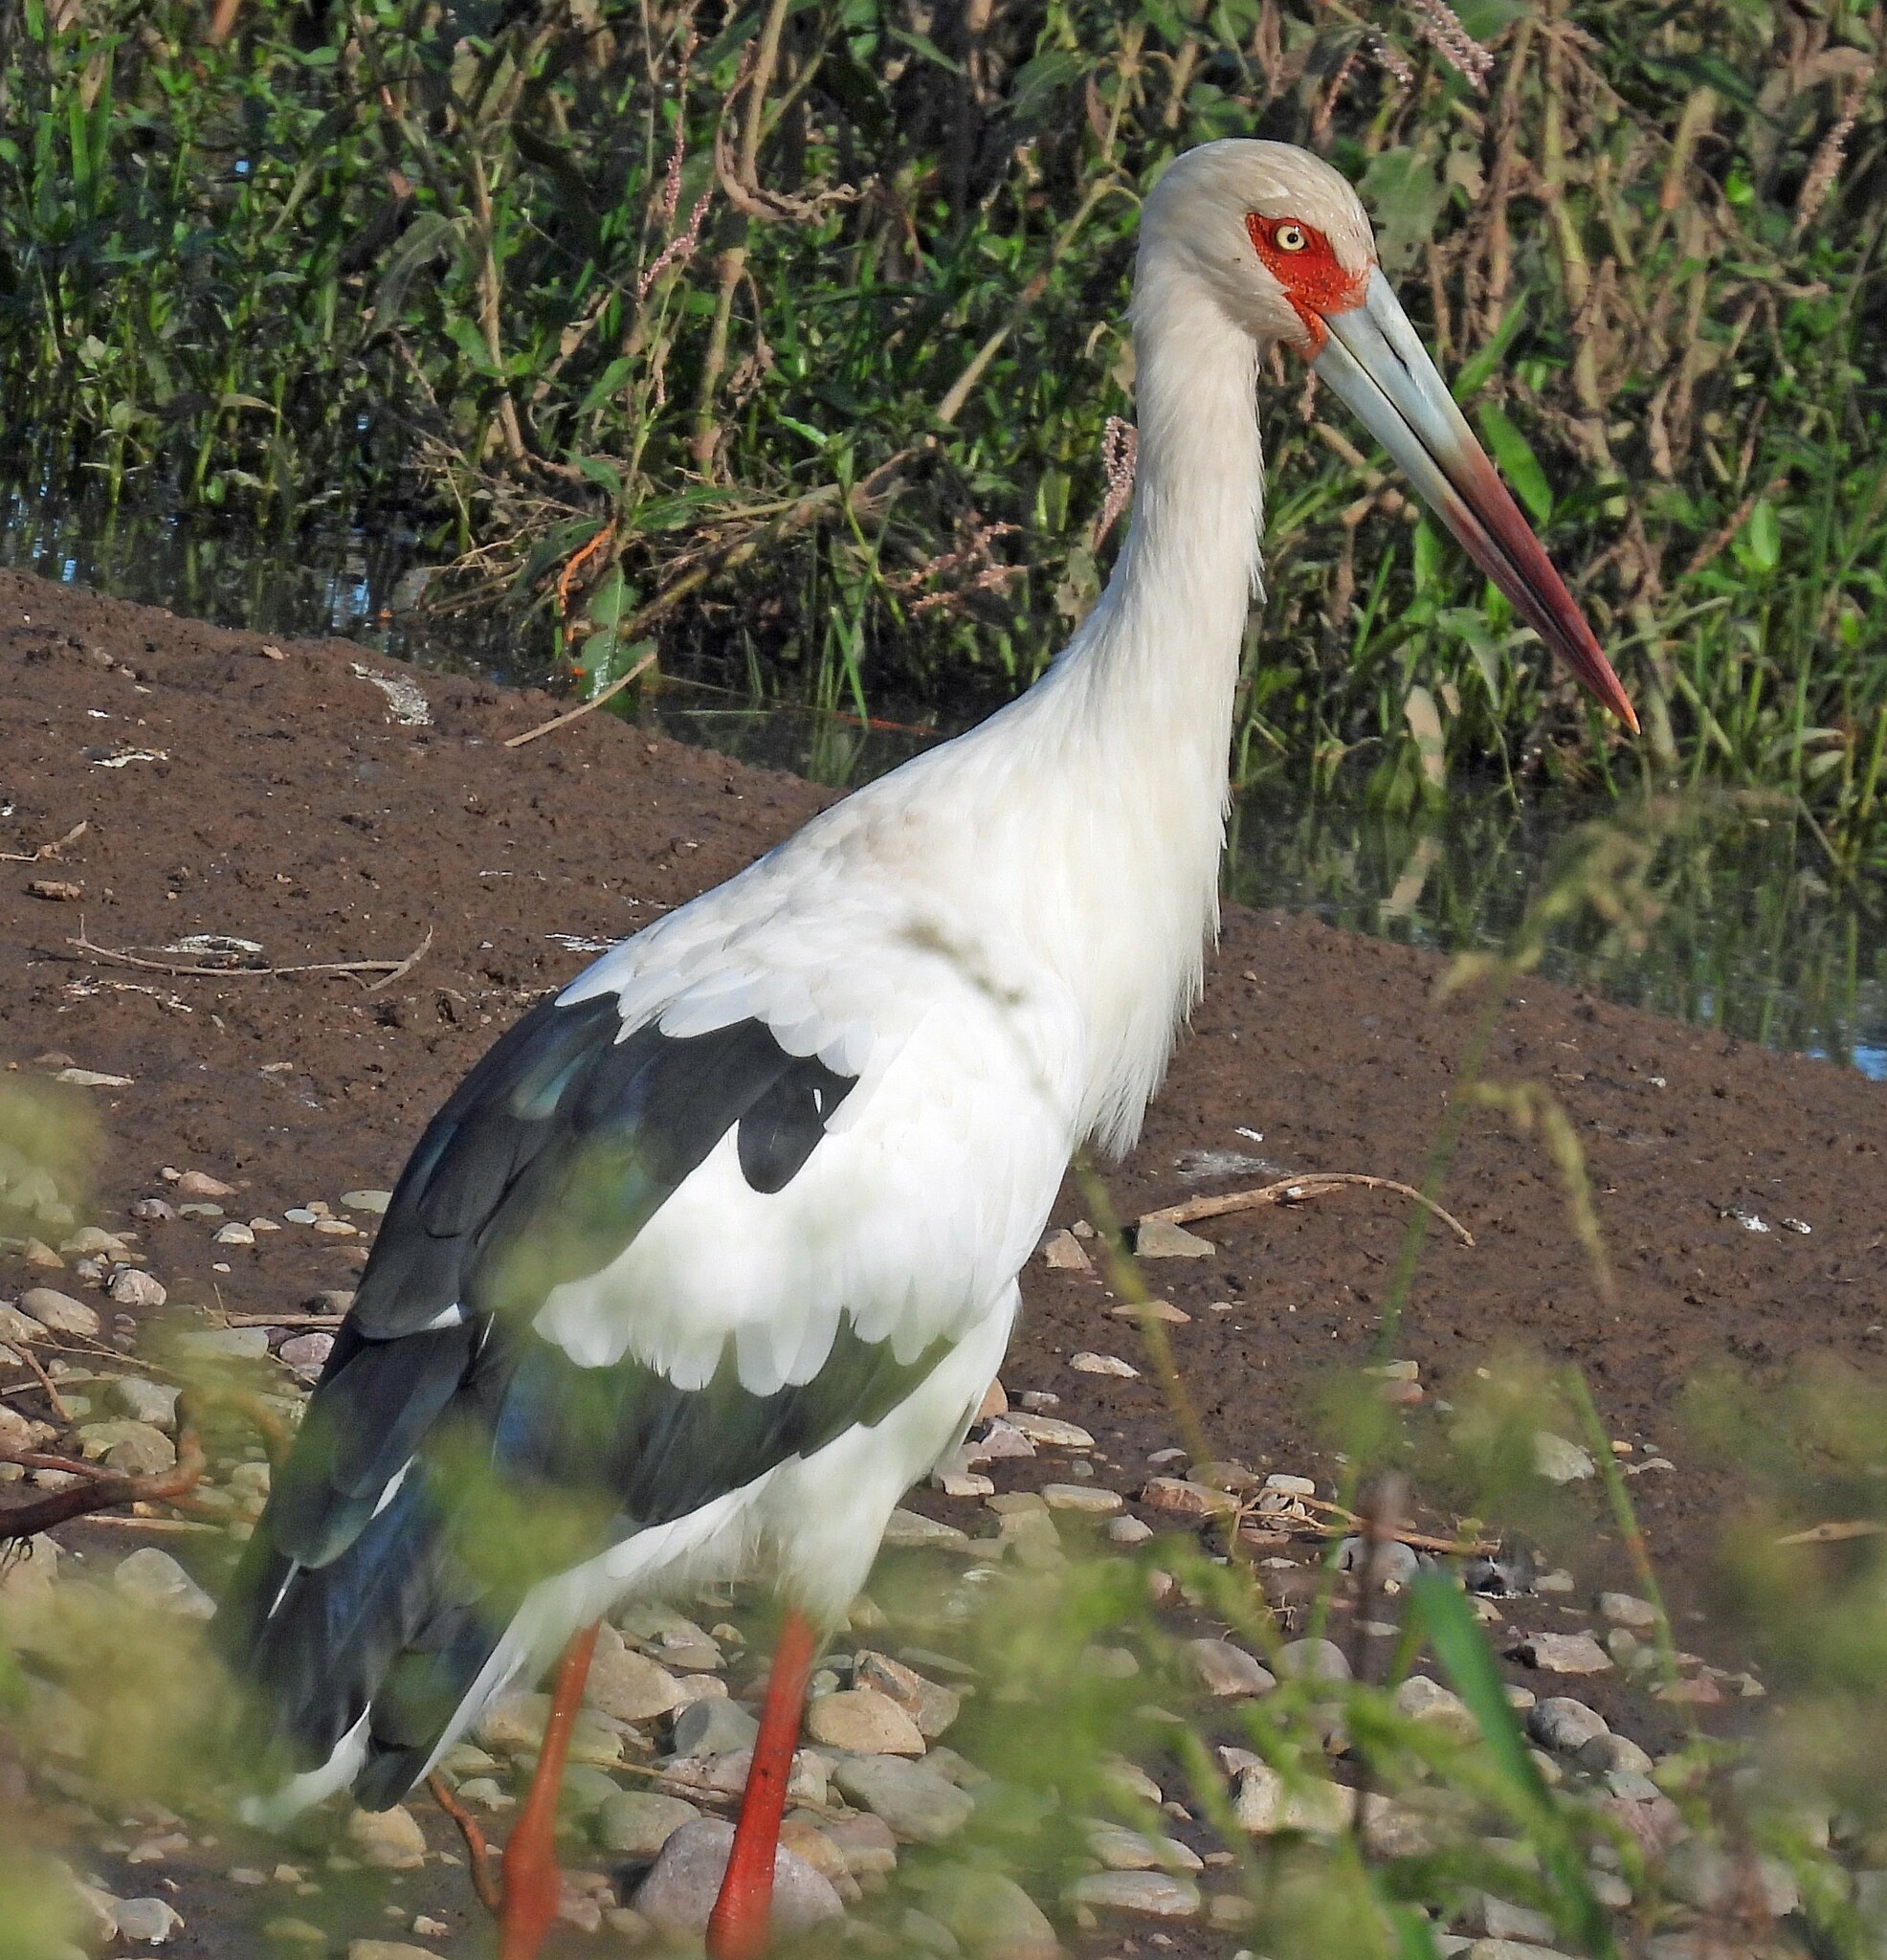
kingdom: Animalia
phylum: Chordata
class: Aves
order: Ciconiiformes
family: Ciconiidae
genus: Ciconia
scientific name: Ciconia maguari
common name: Maguari stork
